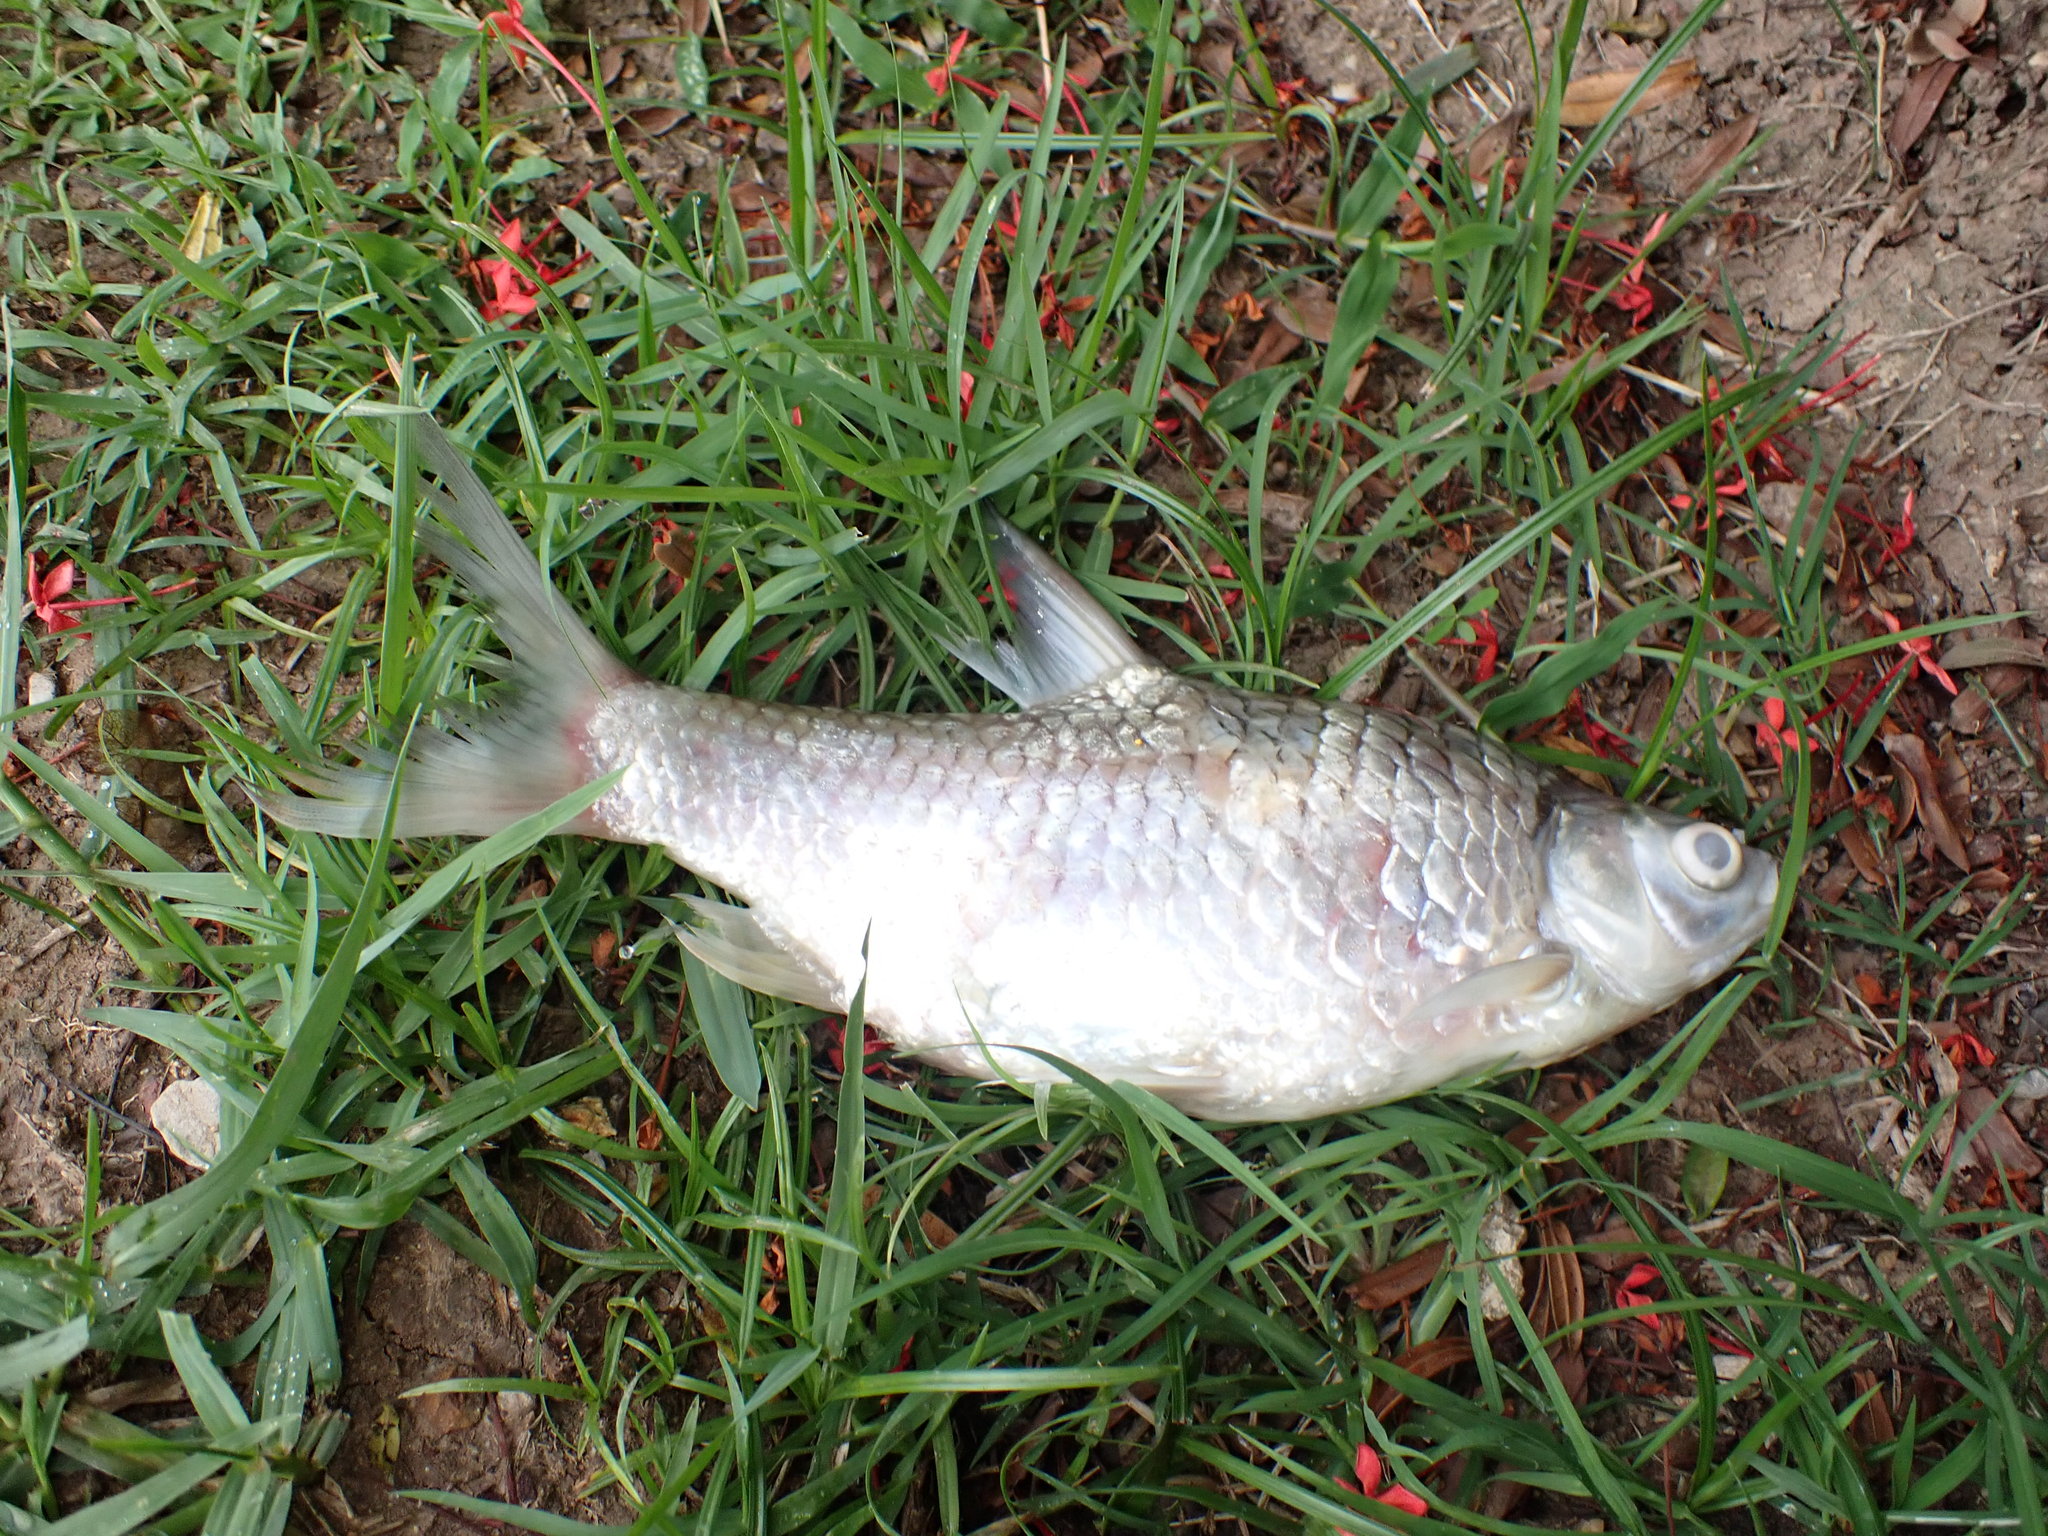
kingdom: Animalia
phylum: Chordata
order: Cypriniformes
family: Cyprinidae
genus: Barbonymus
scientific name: Barbonymus gonionotus
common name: Silver barb
